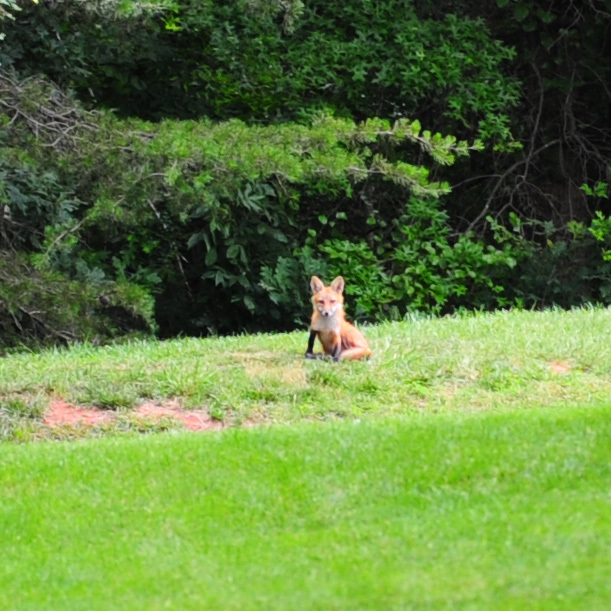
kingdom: Animalia
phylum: Chordata
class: Mammalia
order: Carnivora
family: Canidae
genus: Vulpes
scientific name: Vulpes vulpes
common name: Red fox
